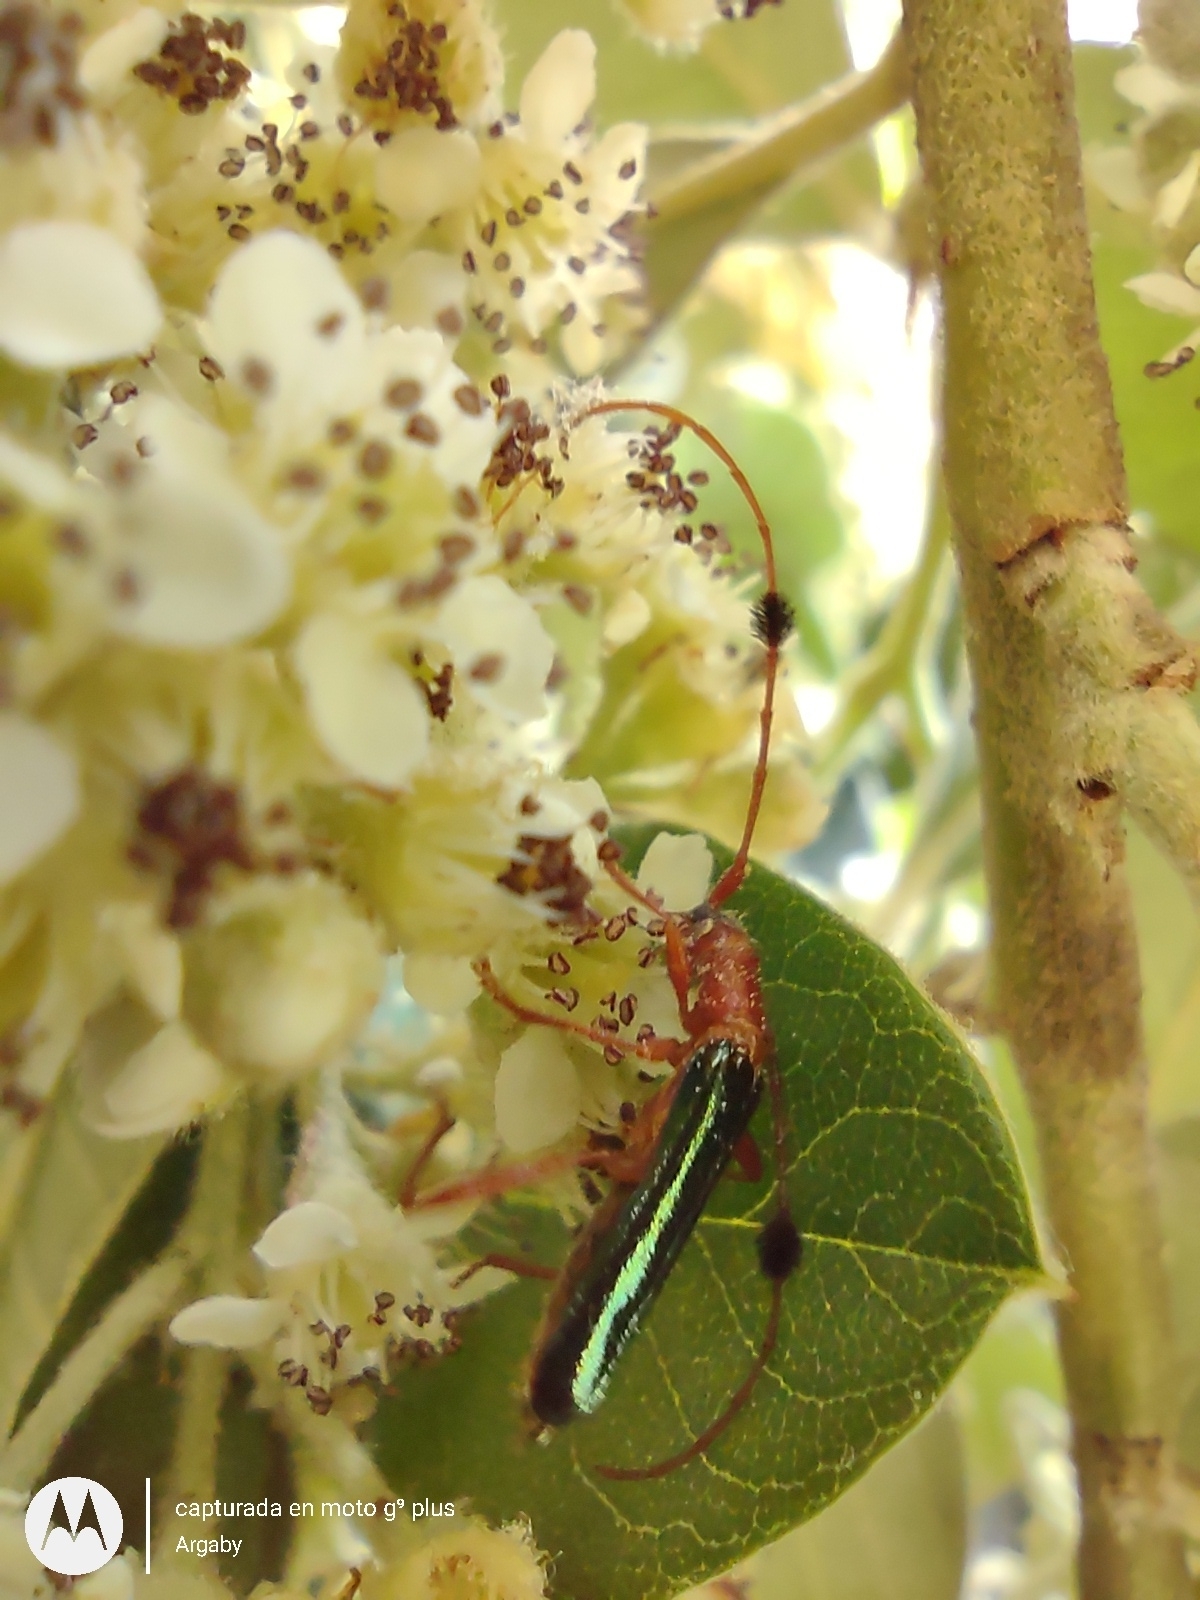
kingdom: Animalia
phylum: Arthropoda
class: Insecta
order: Coleoptera
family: Cerambycidae
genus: Paromoeocerus
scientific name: Paromoeocerus barbicornis
